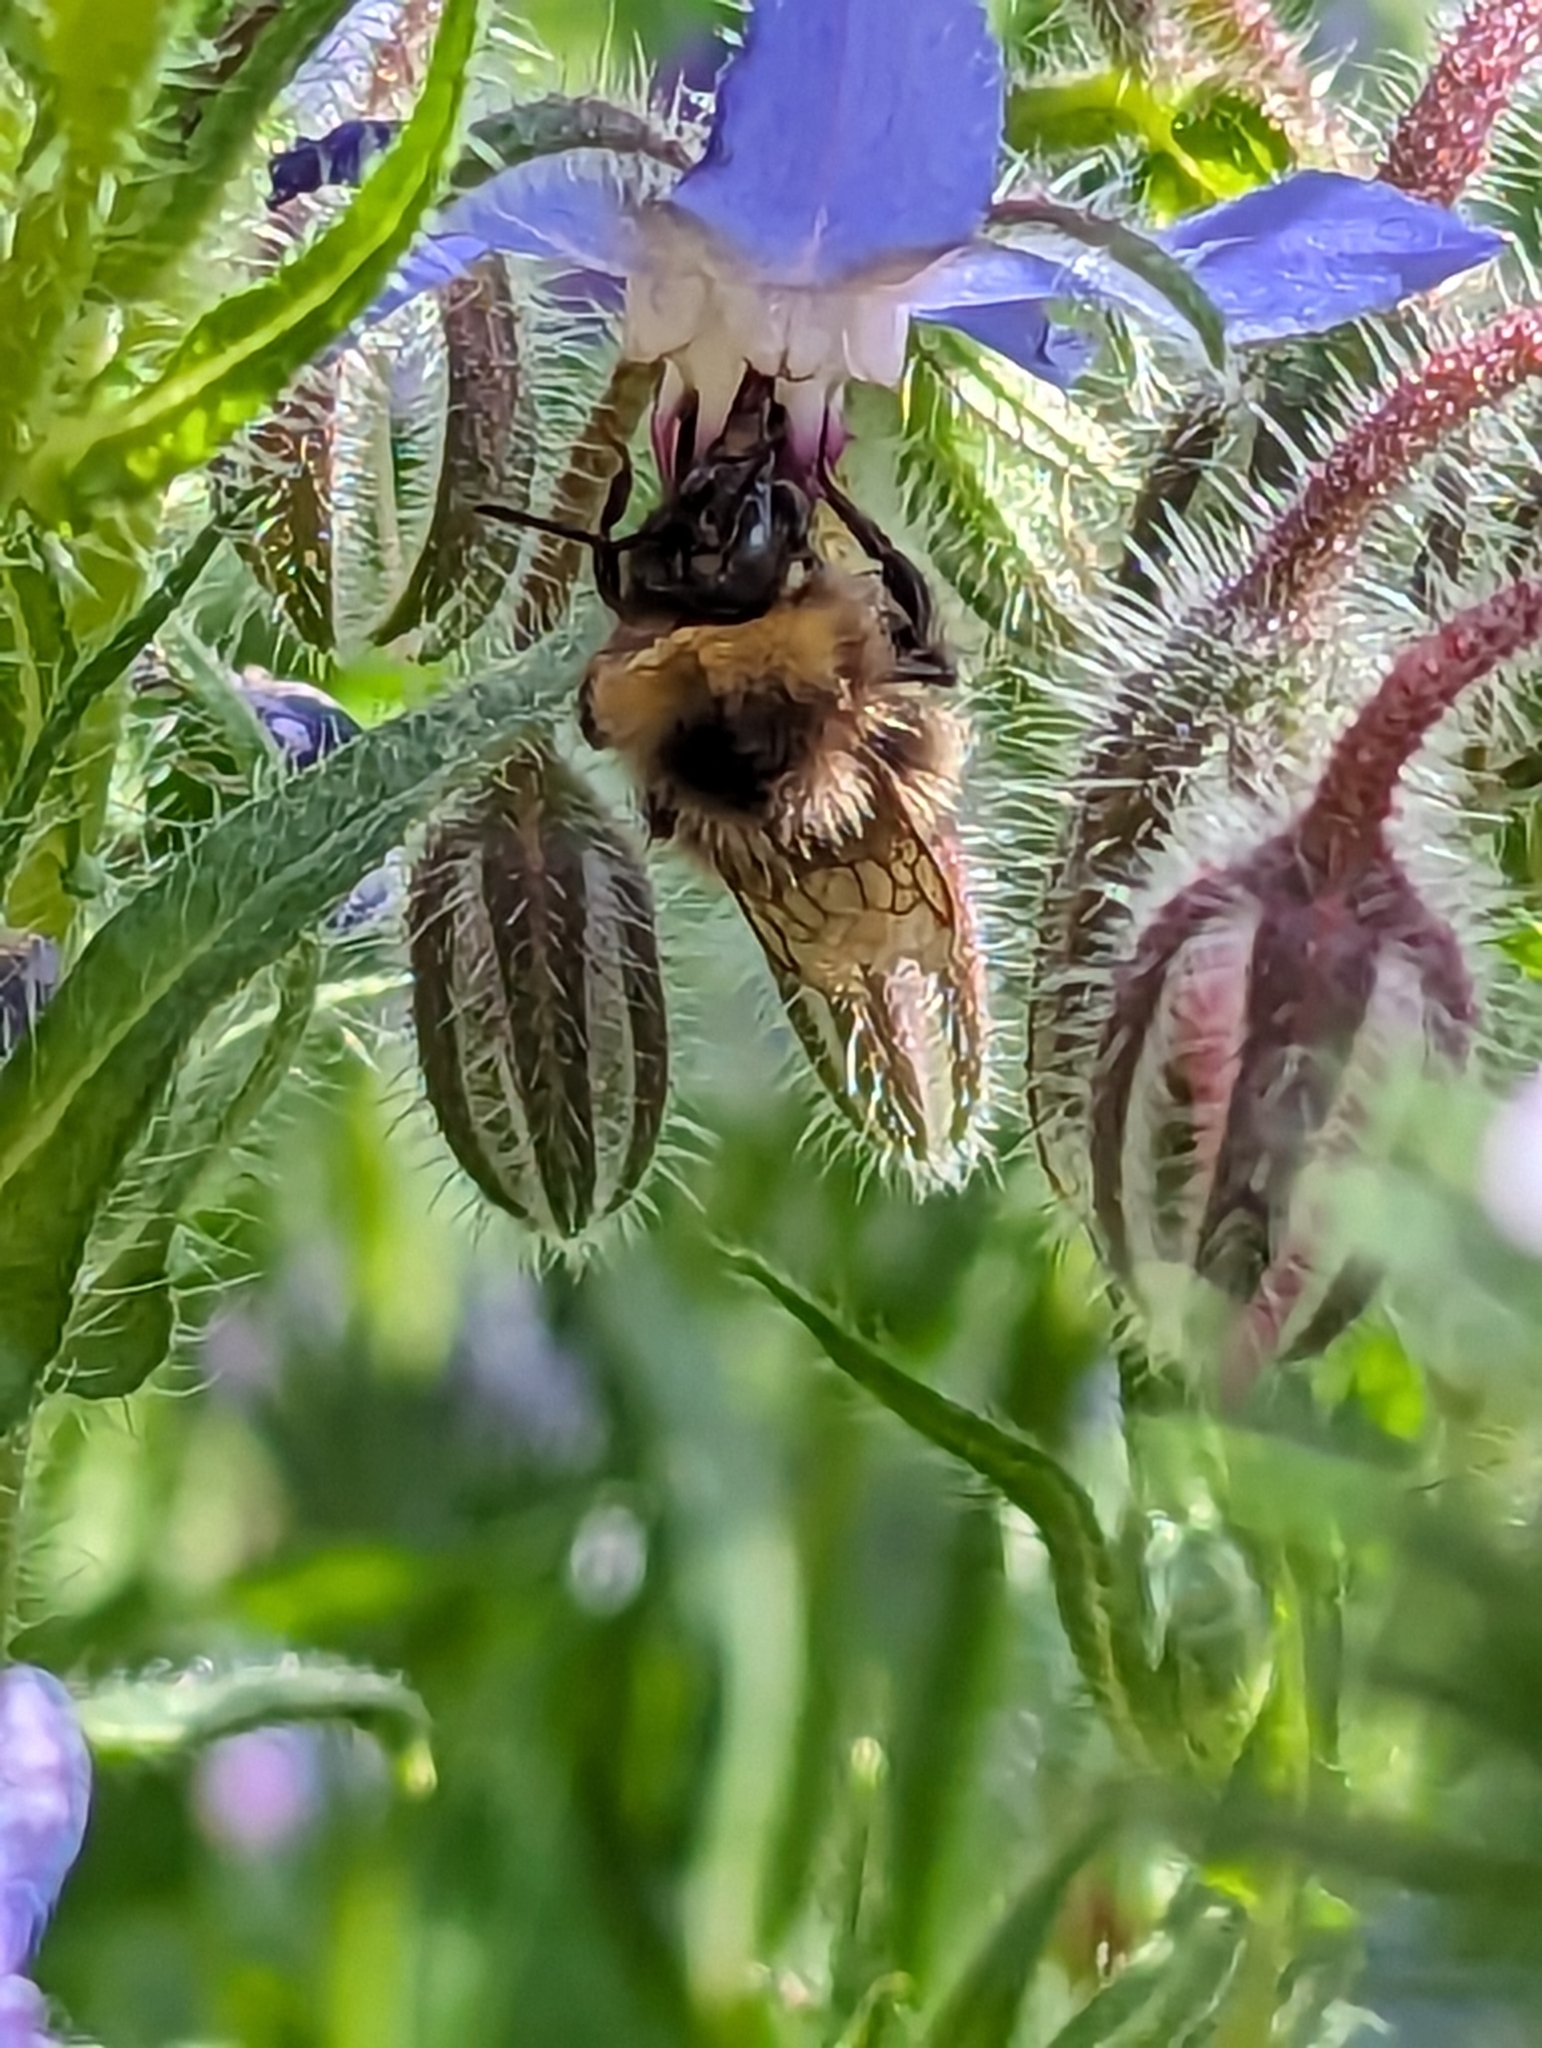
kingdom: Animalia
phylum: Arthropoda
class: Insecta
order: Hymenoptera
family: Apidae
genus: Bombus
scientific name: Bombus hortorum
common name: Garden bumblebee
